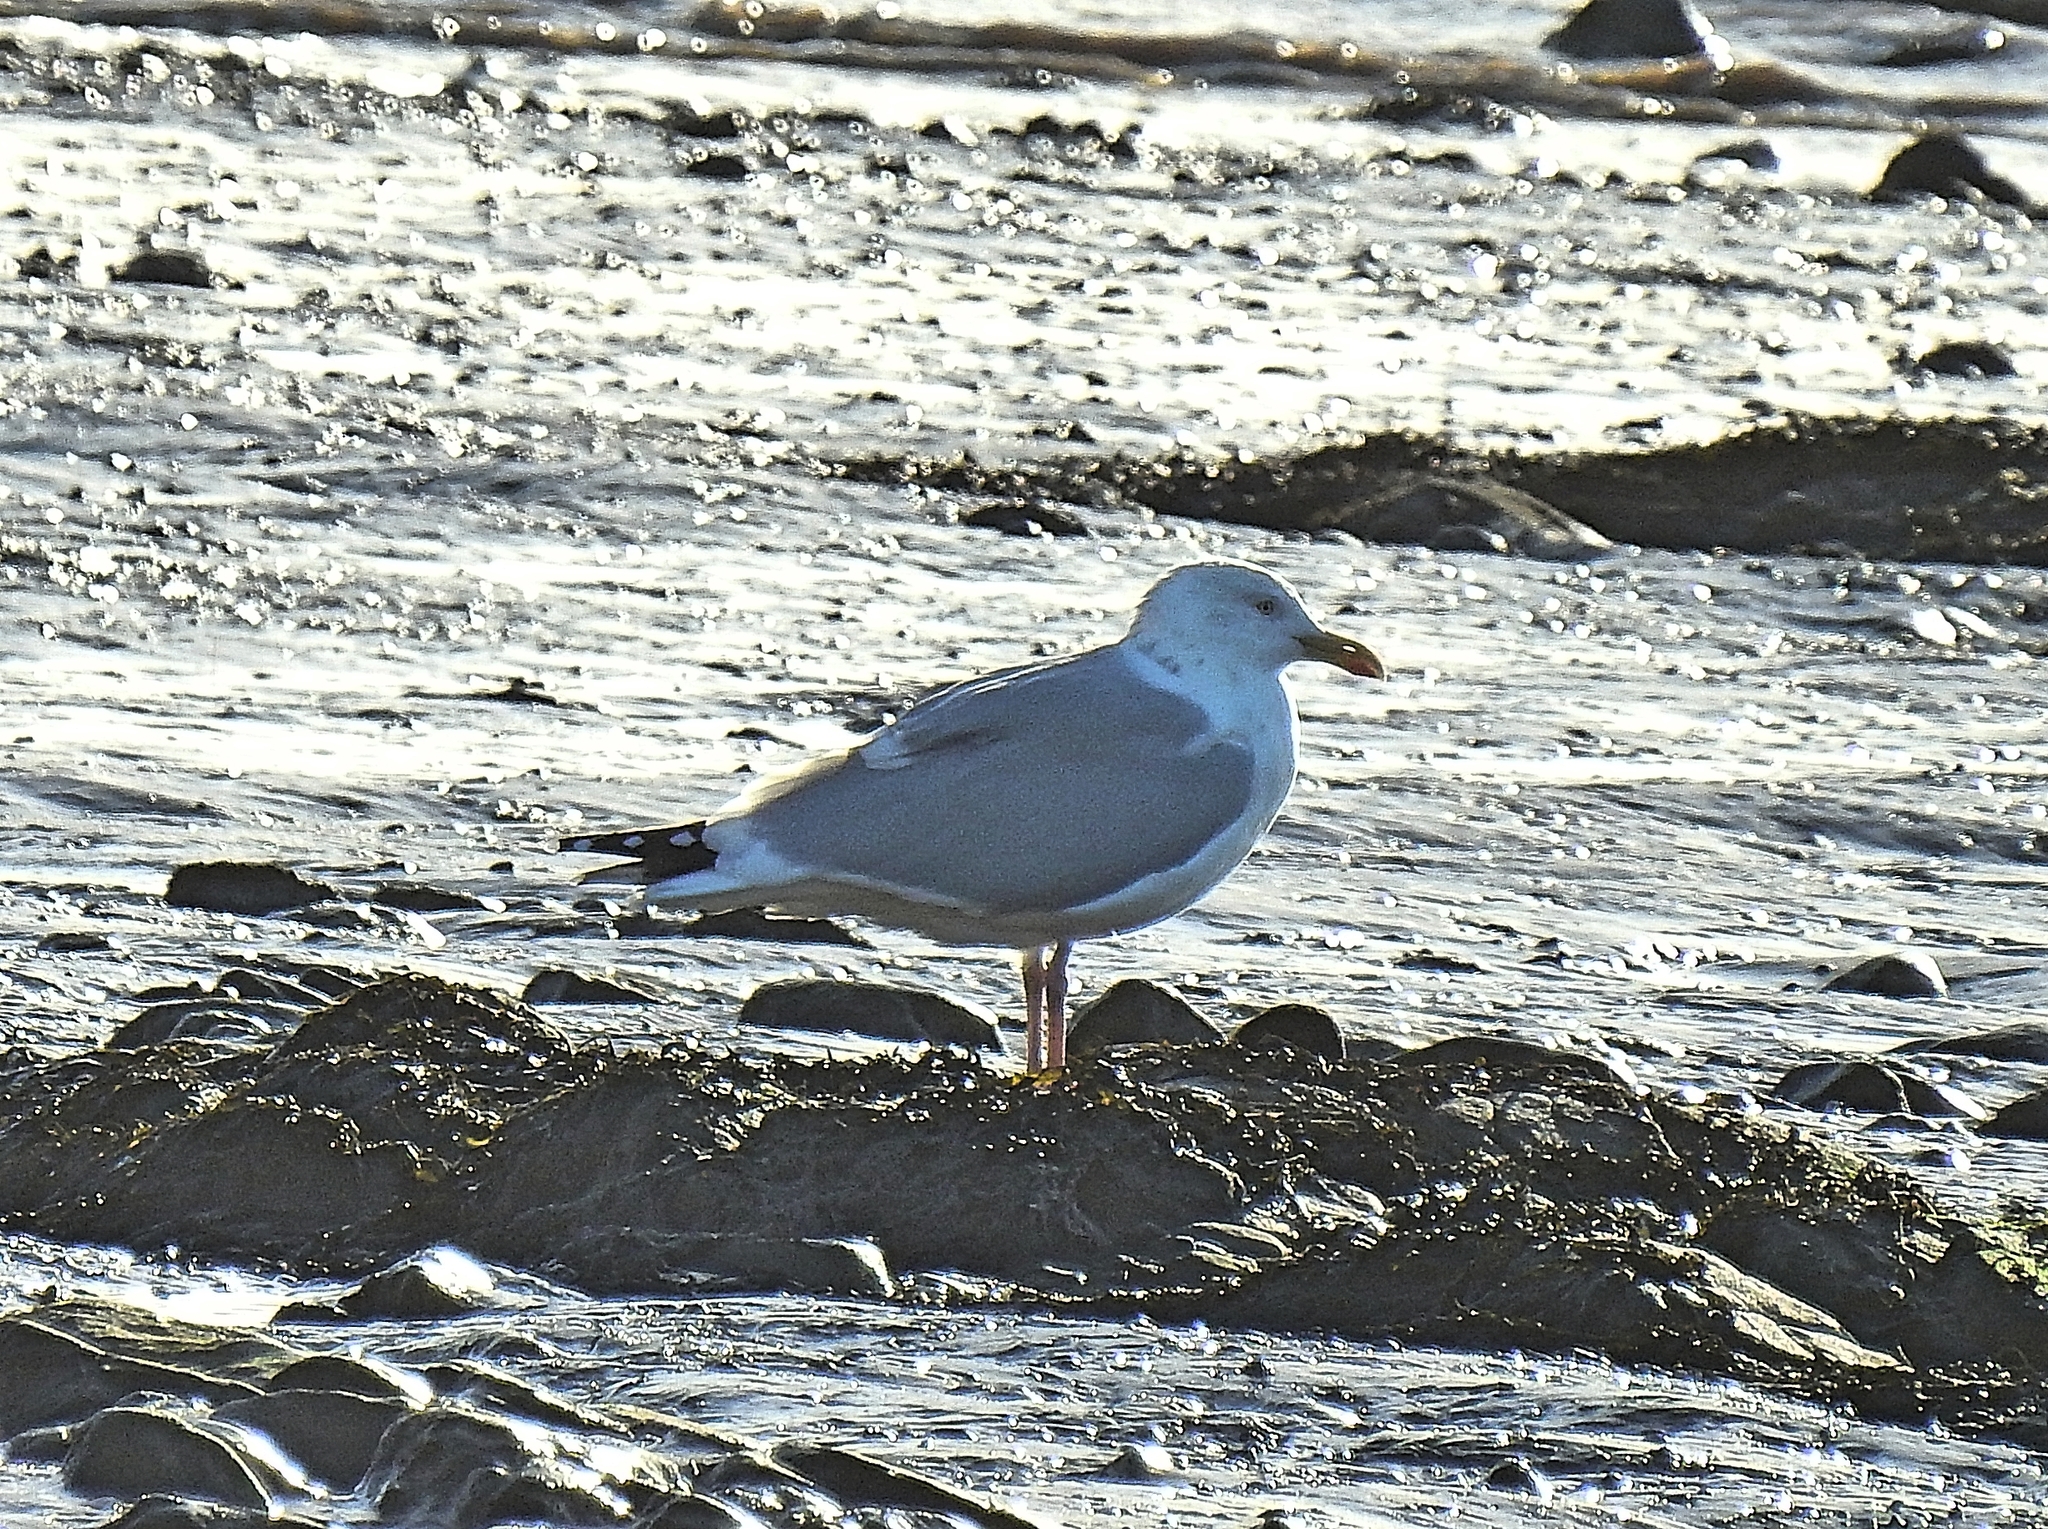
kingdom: Animalia
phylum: Chordata
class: Aves
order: Charadriiformes
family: Laridae
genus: Larus
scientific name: Larus argentatus
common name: Herring gull
